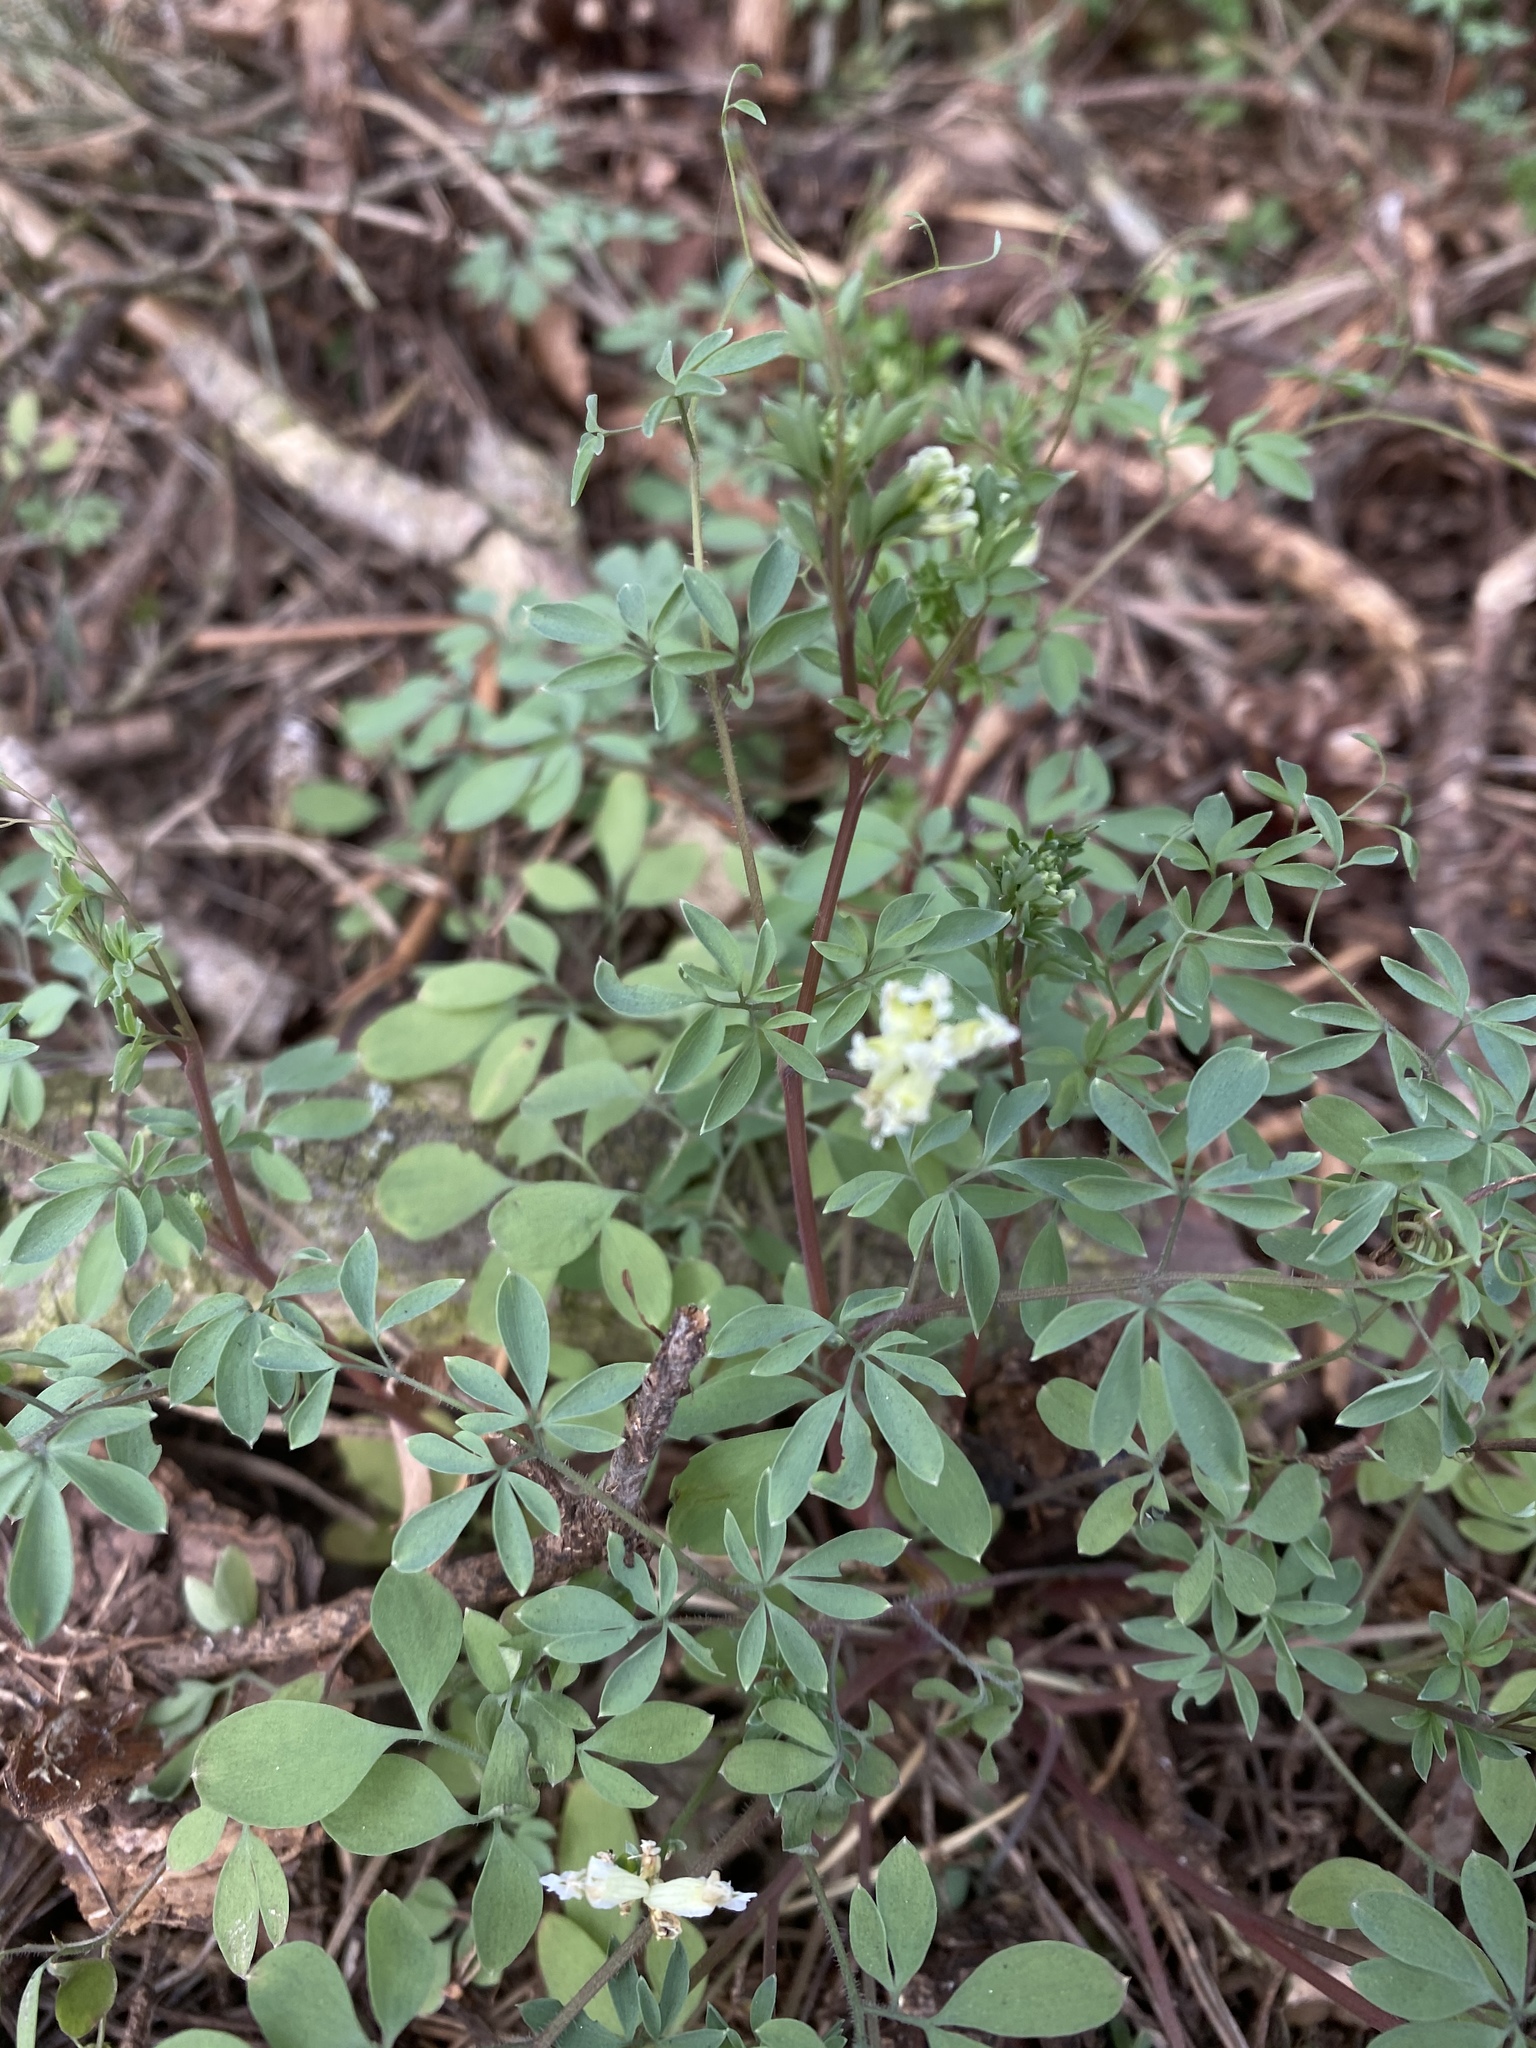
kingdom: Plantae
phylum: Tracheophyta
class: Magnoliopsida
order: Ranunculales
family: Papaveraceae
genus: Ceratocapnos
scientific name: Ceratocapnos claviculata
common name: Climbing corydalis
